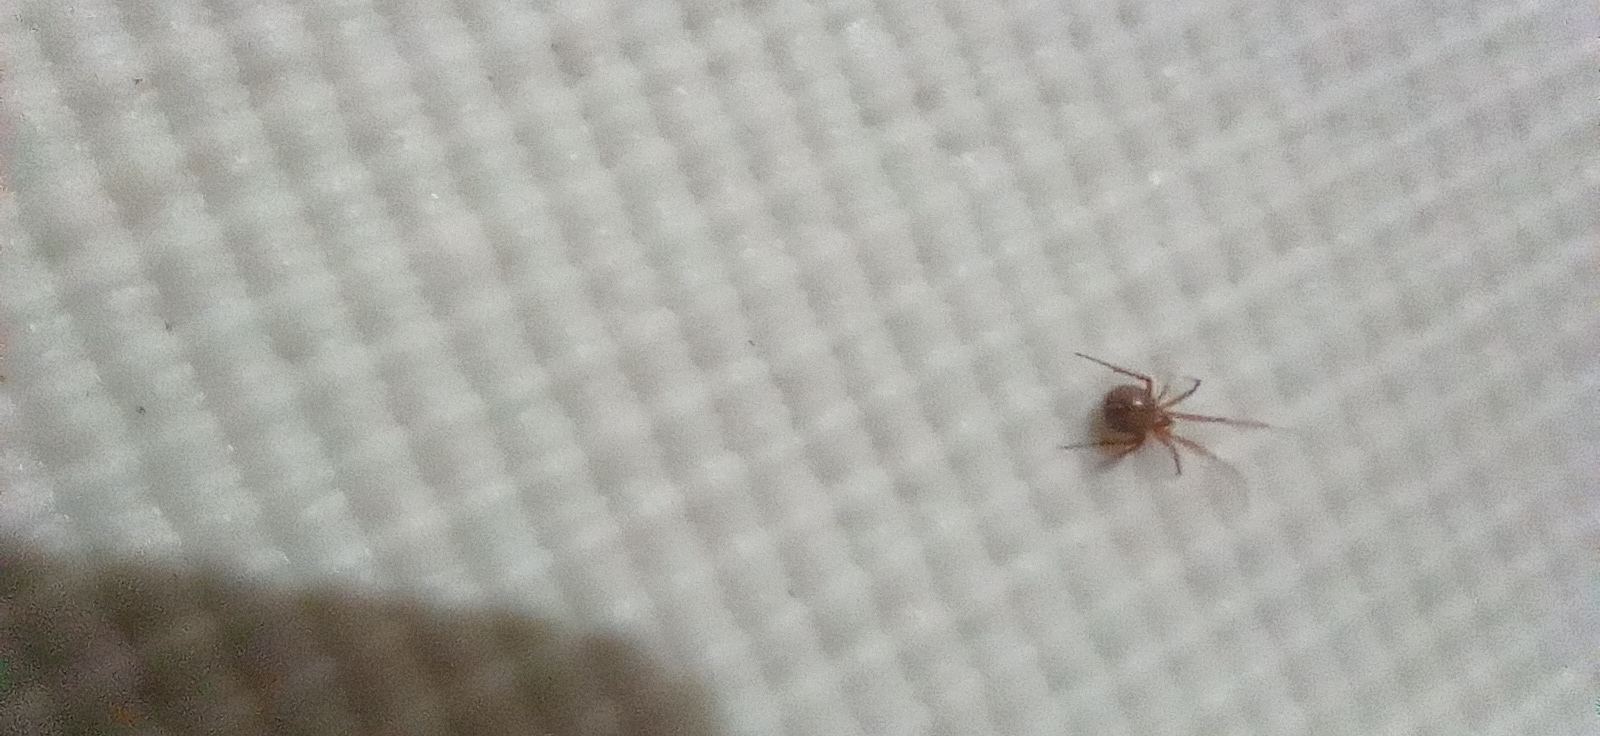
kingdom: Animalia
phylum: Arthropoda
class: Arachnida
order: Araneae
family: Theridiidae
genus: Nesticodes
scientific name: Nesticodes rufipes
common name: Cobweb spiders
